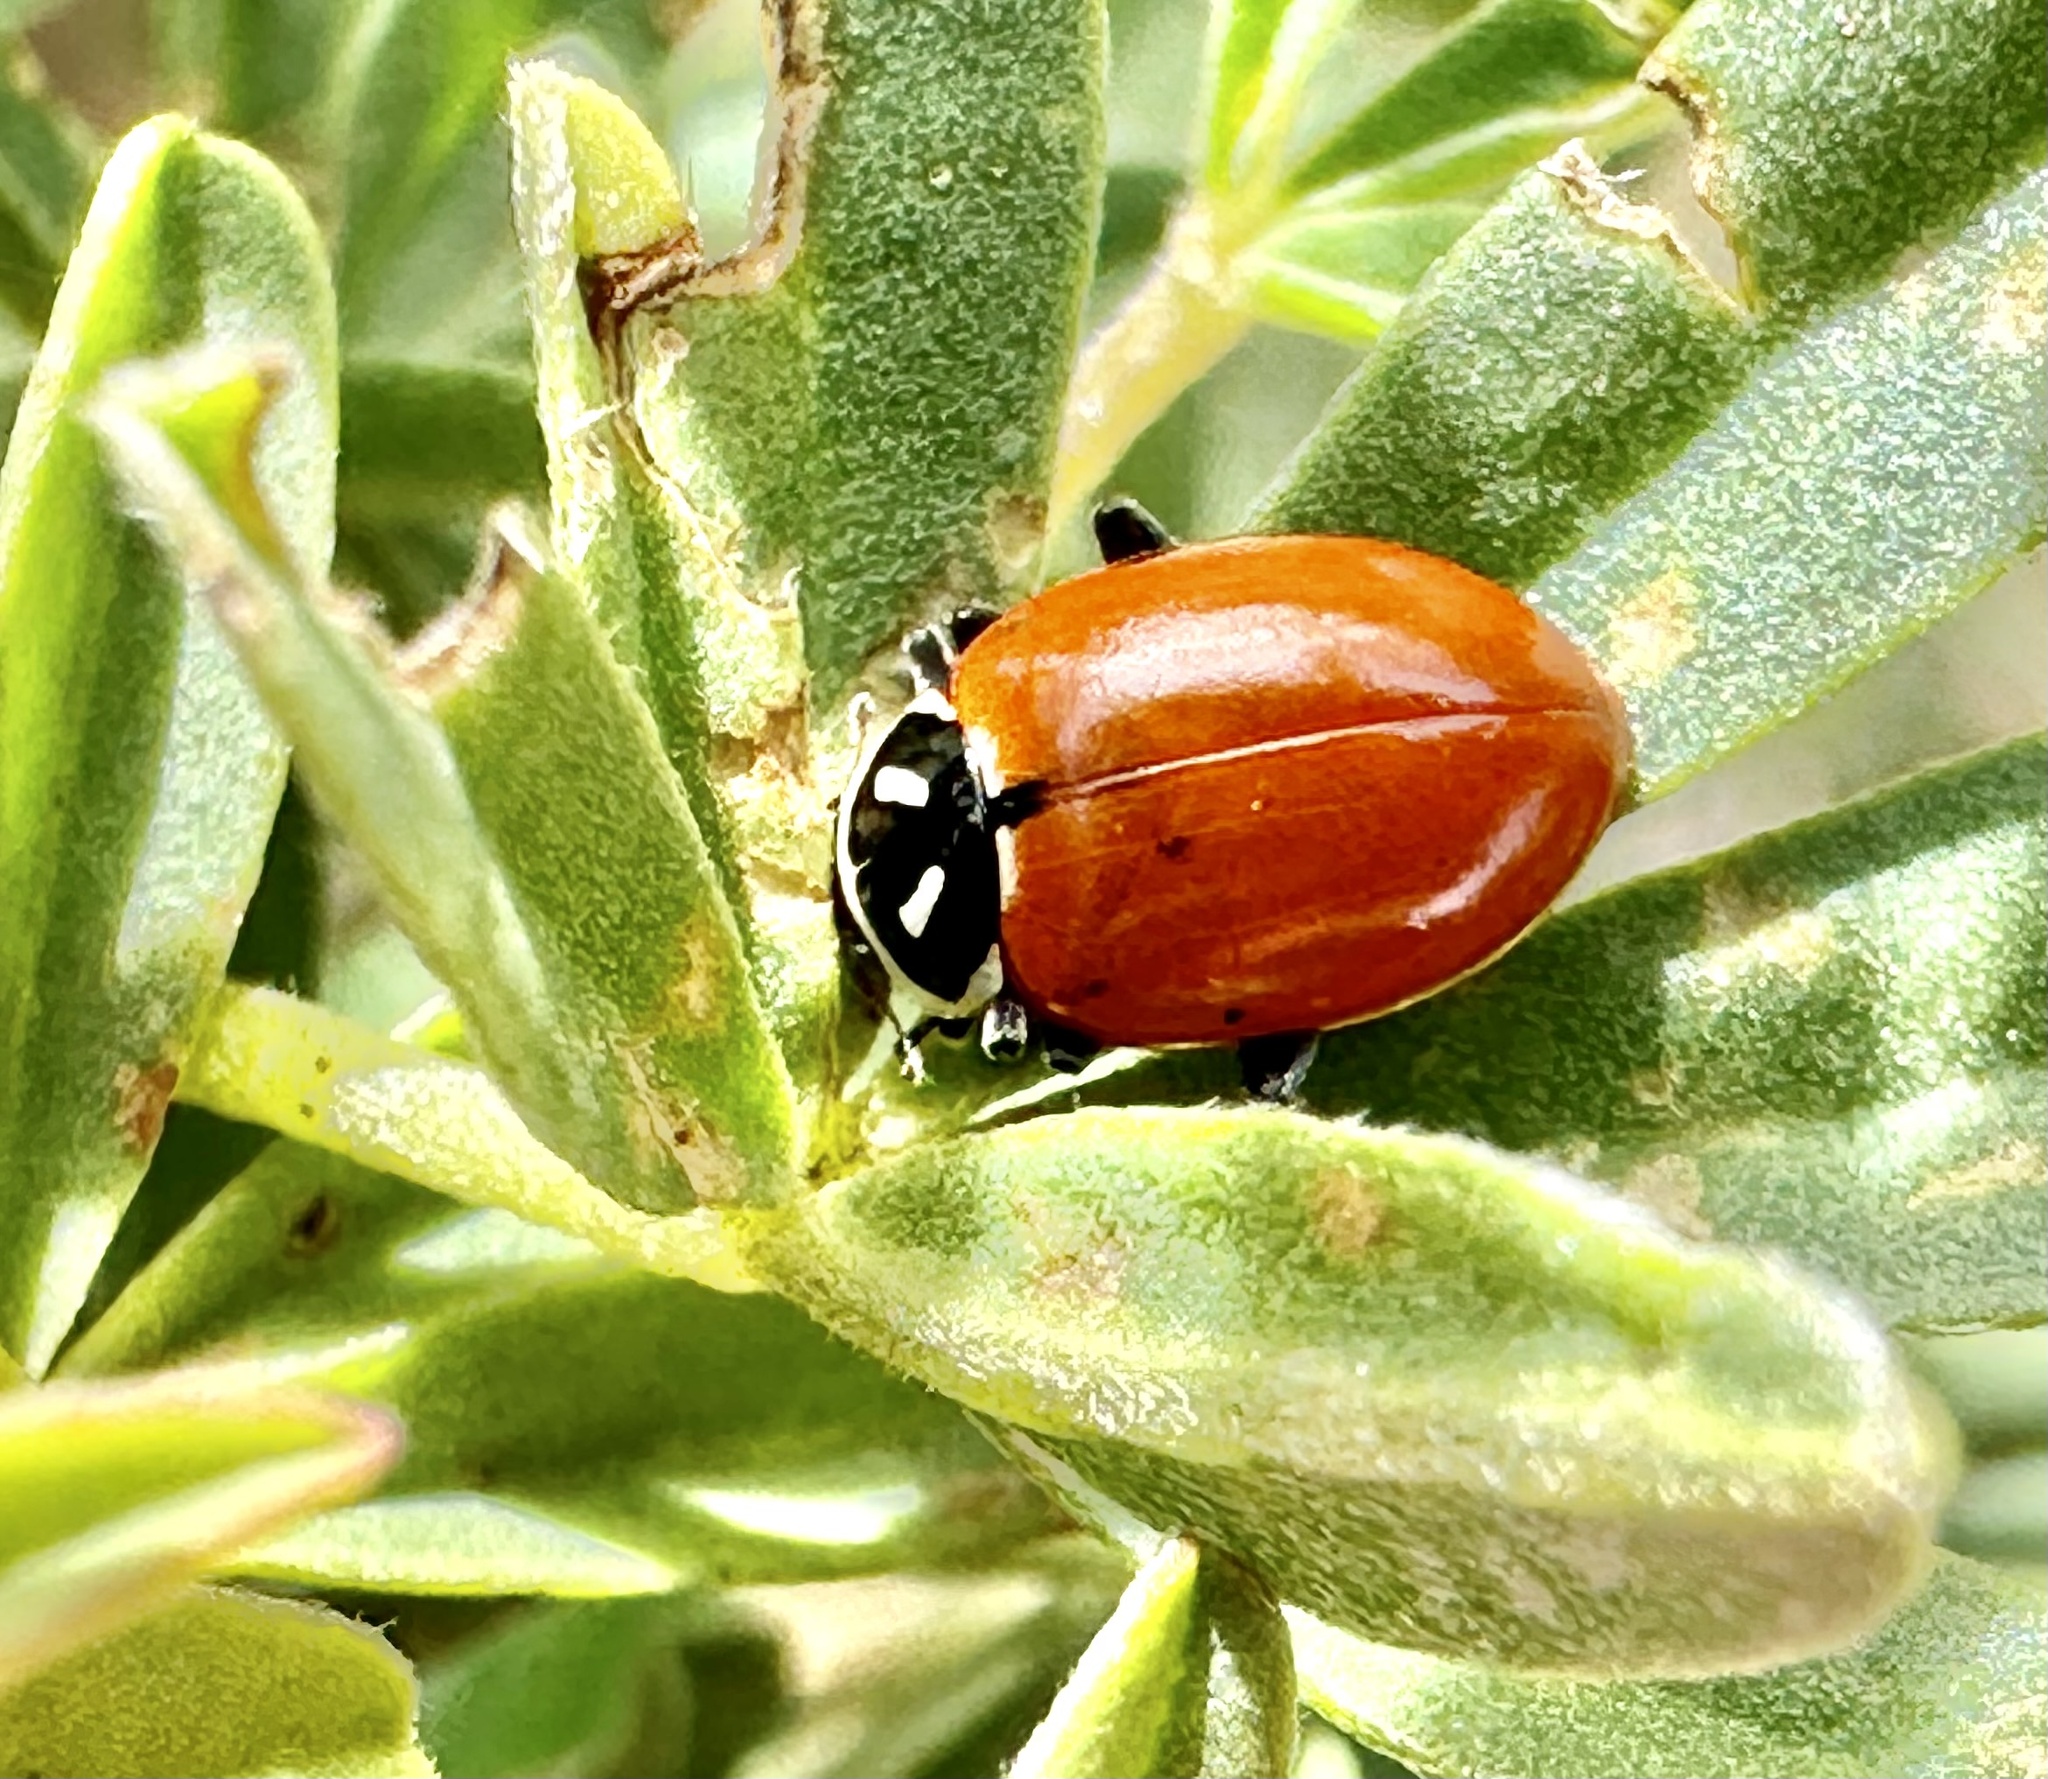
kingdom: Animalia
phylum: Arthropoda
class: Insecta
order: Coleoptera
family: Coccinellidae
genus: Hippodamia
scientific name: Hippodamia convergens
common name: Convergent lady beetle
